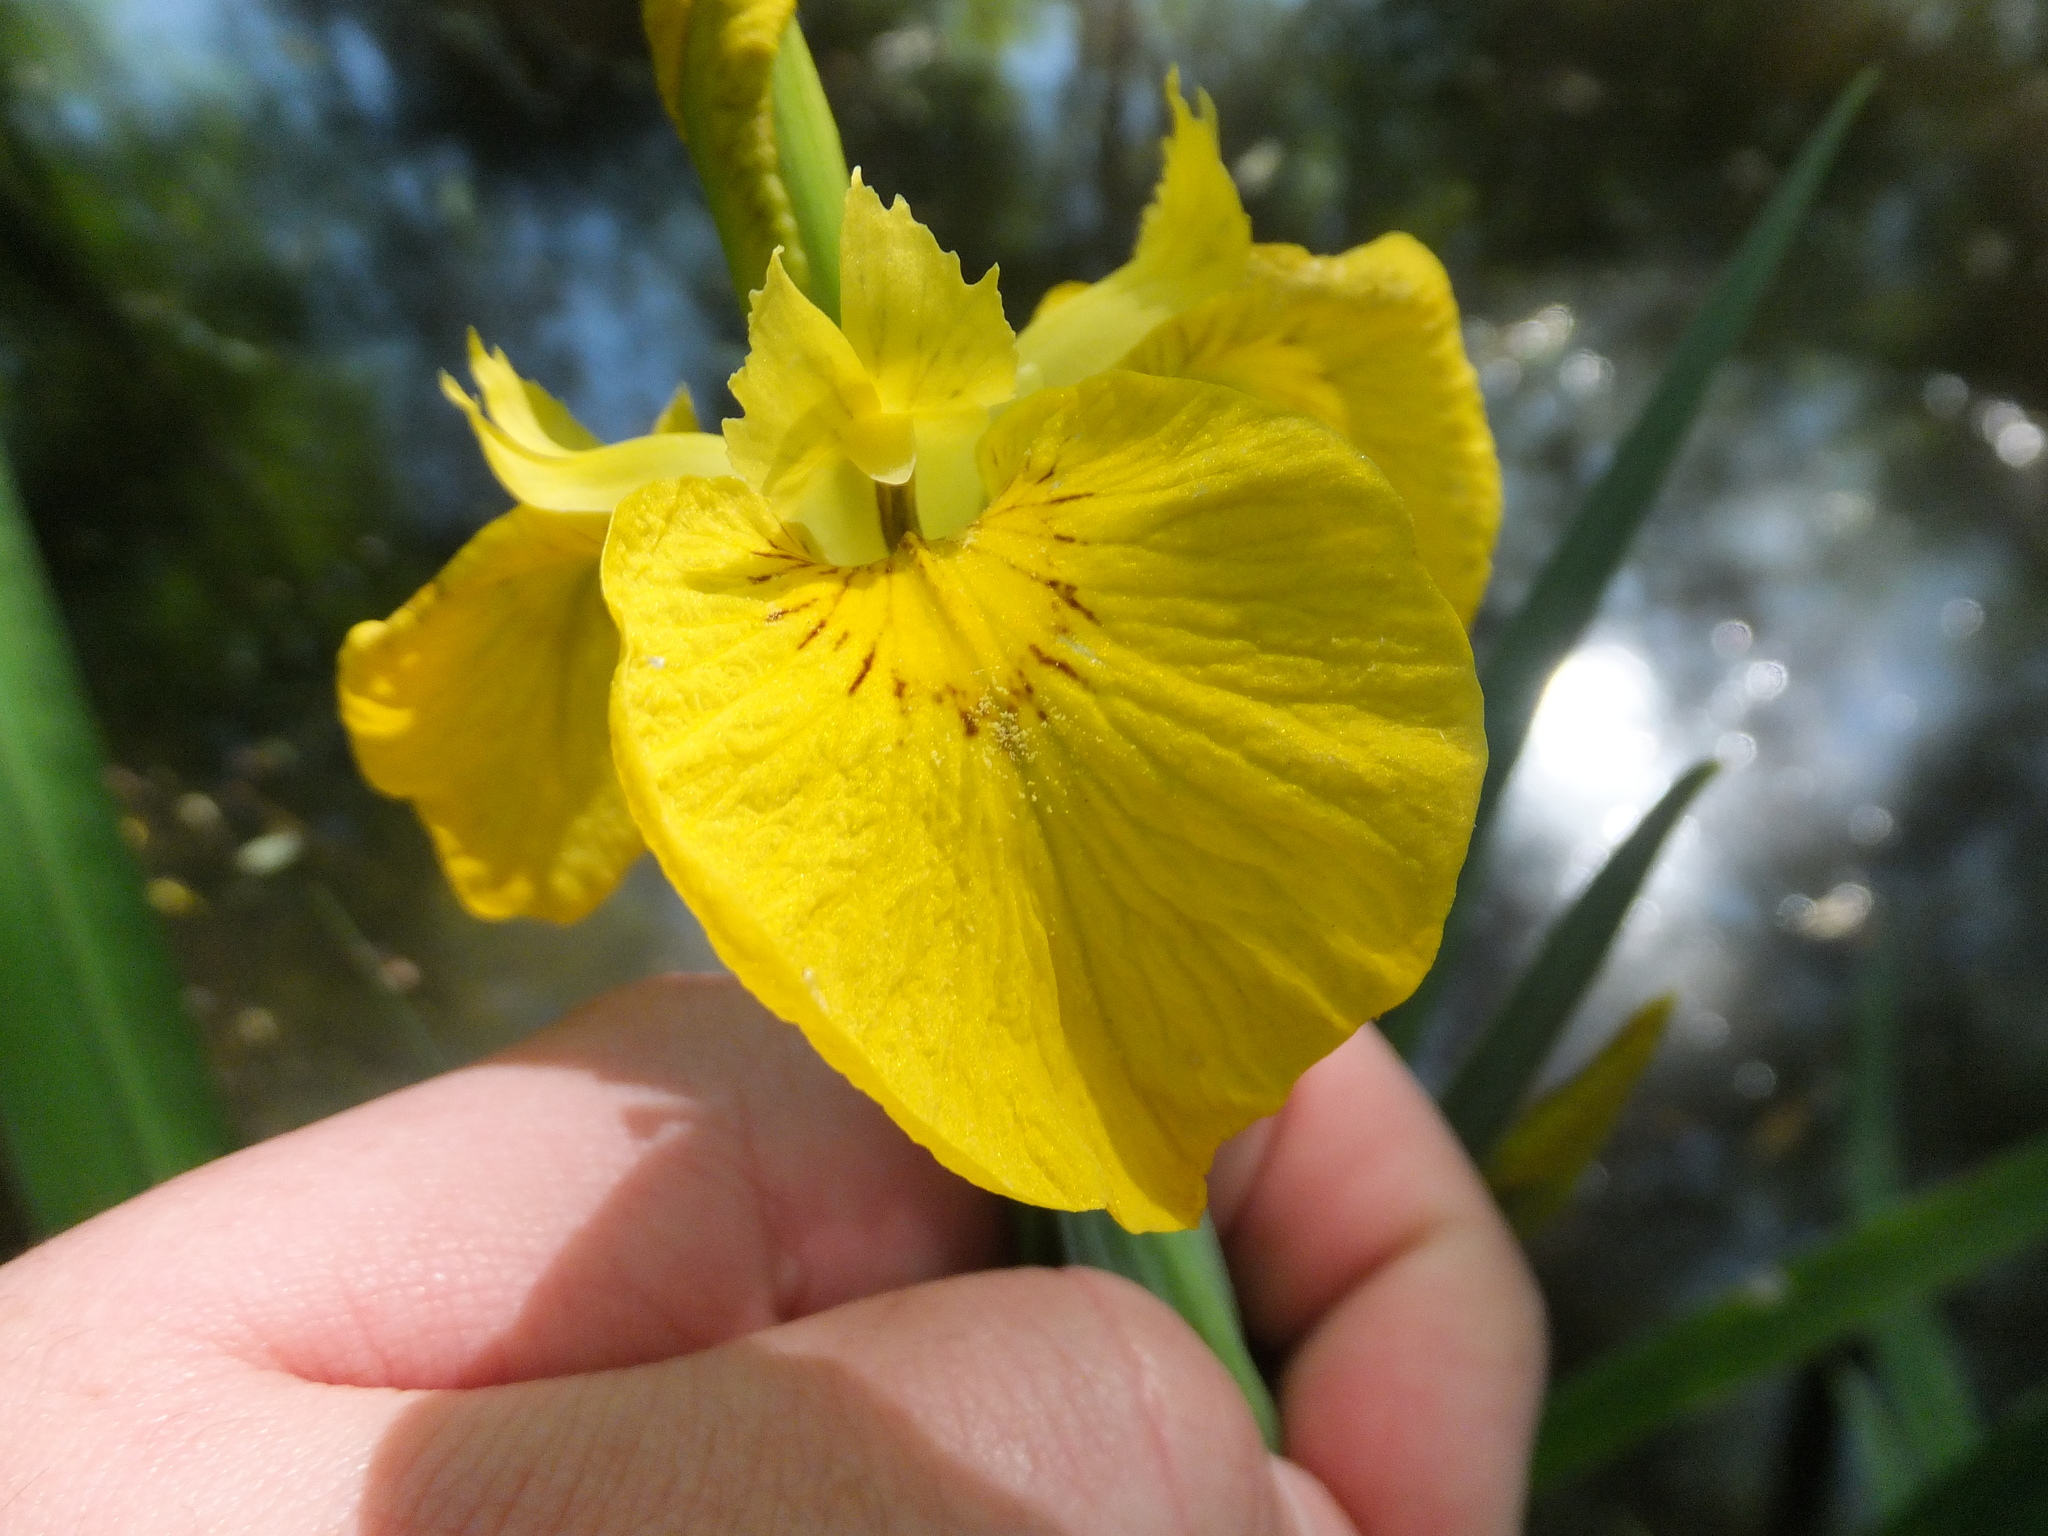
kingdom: Plantae
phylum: Tracheophyta
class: Liliopsida
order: Asparagales
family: Iridaceae
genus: Iris
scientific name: Iris pseudacorus
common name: Yellow flag
